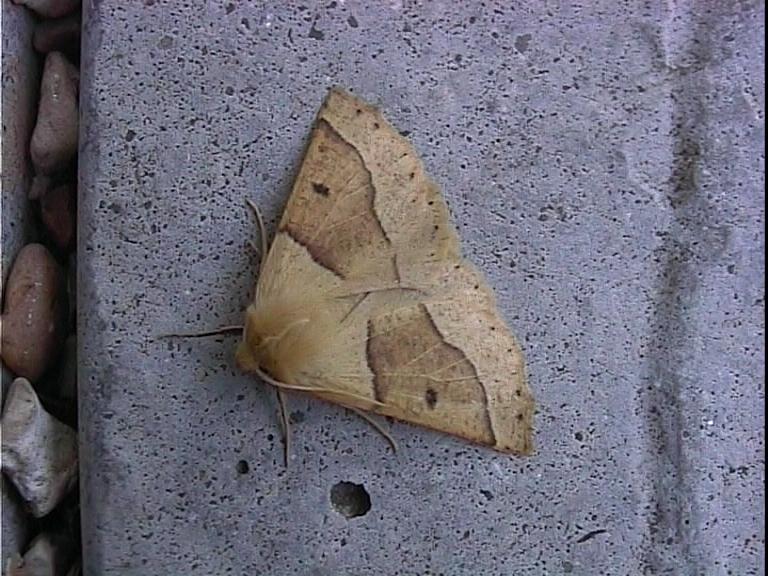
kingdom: Animalia
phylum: Arthropoda
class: Insecta
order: Lepidoptera
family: Geometridae
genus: Crocallis
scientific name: Crocallis elinguaria
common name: Scalloped oak
